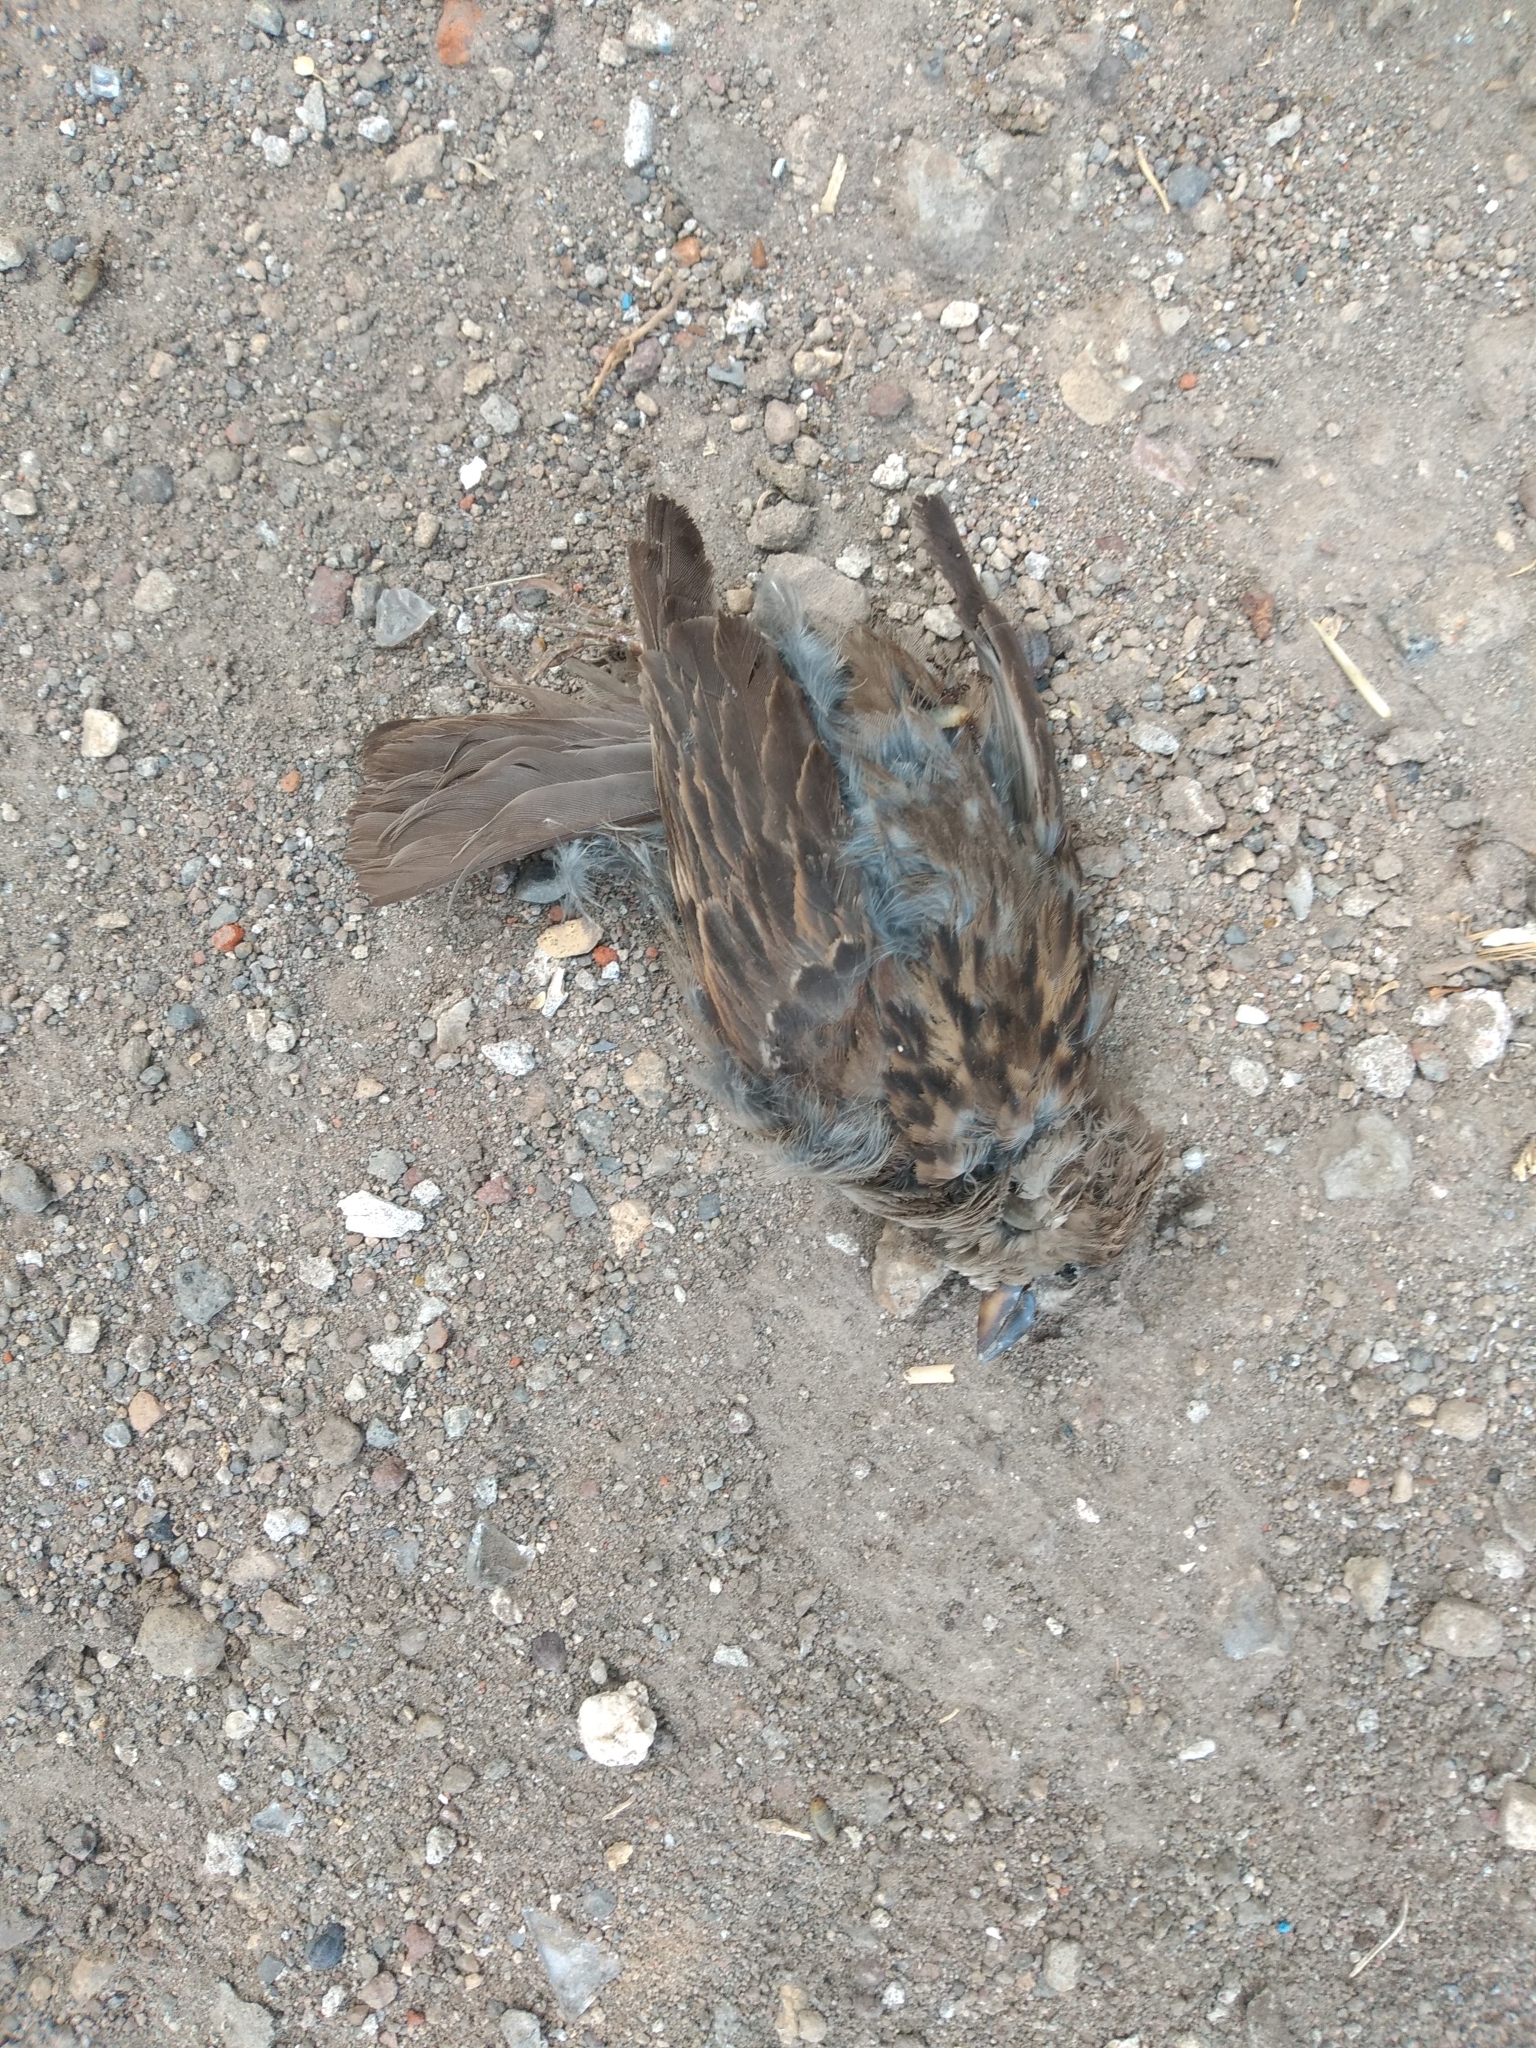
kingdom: Animalia
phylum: Chordata
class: Aves
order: Passeriformes
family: Passeridae
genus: Passer
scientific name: Passer domesticus
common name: House sparrow
